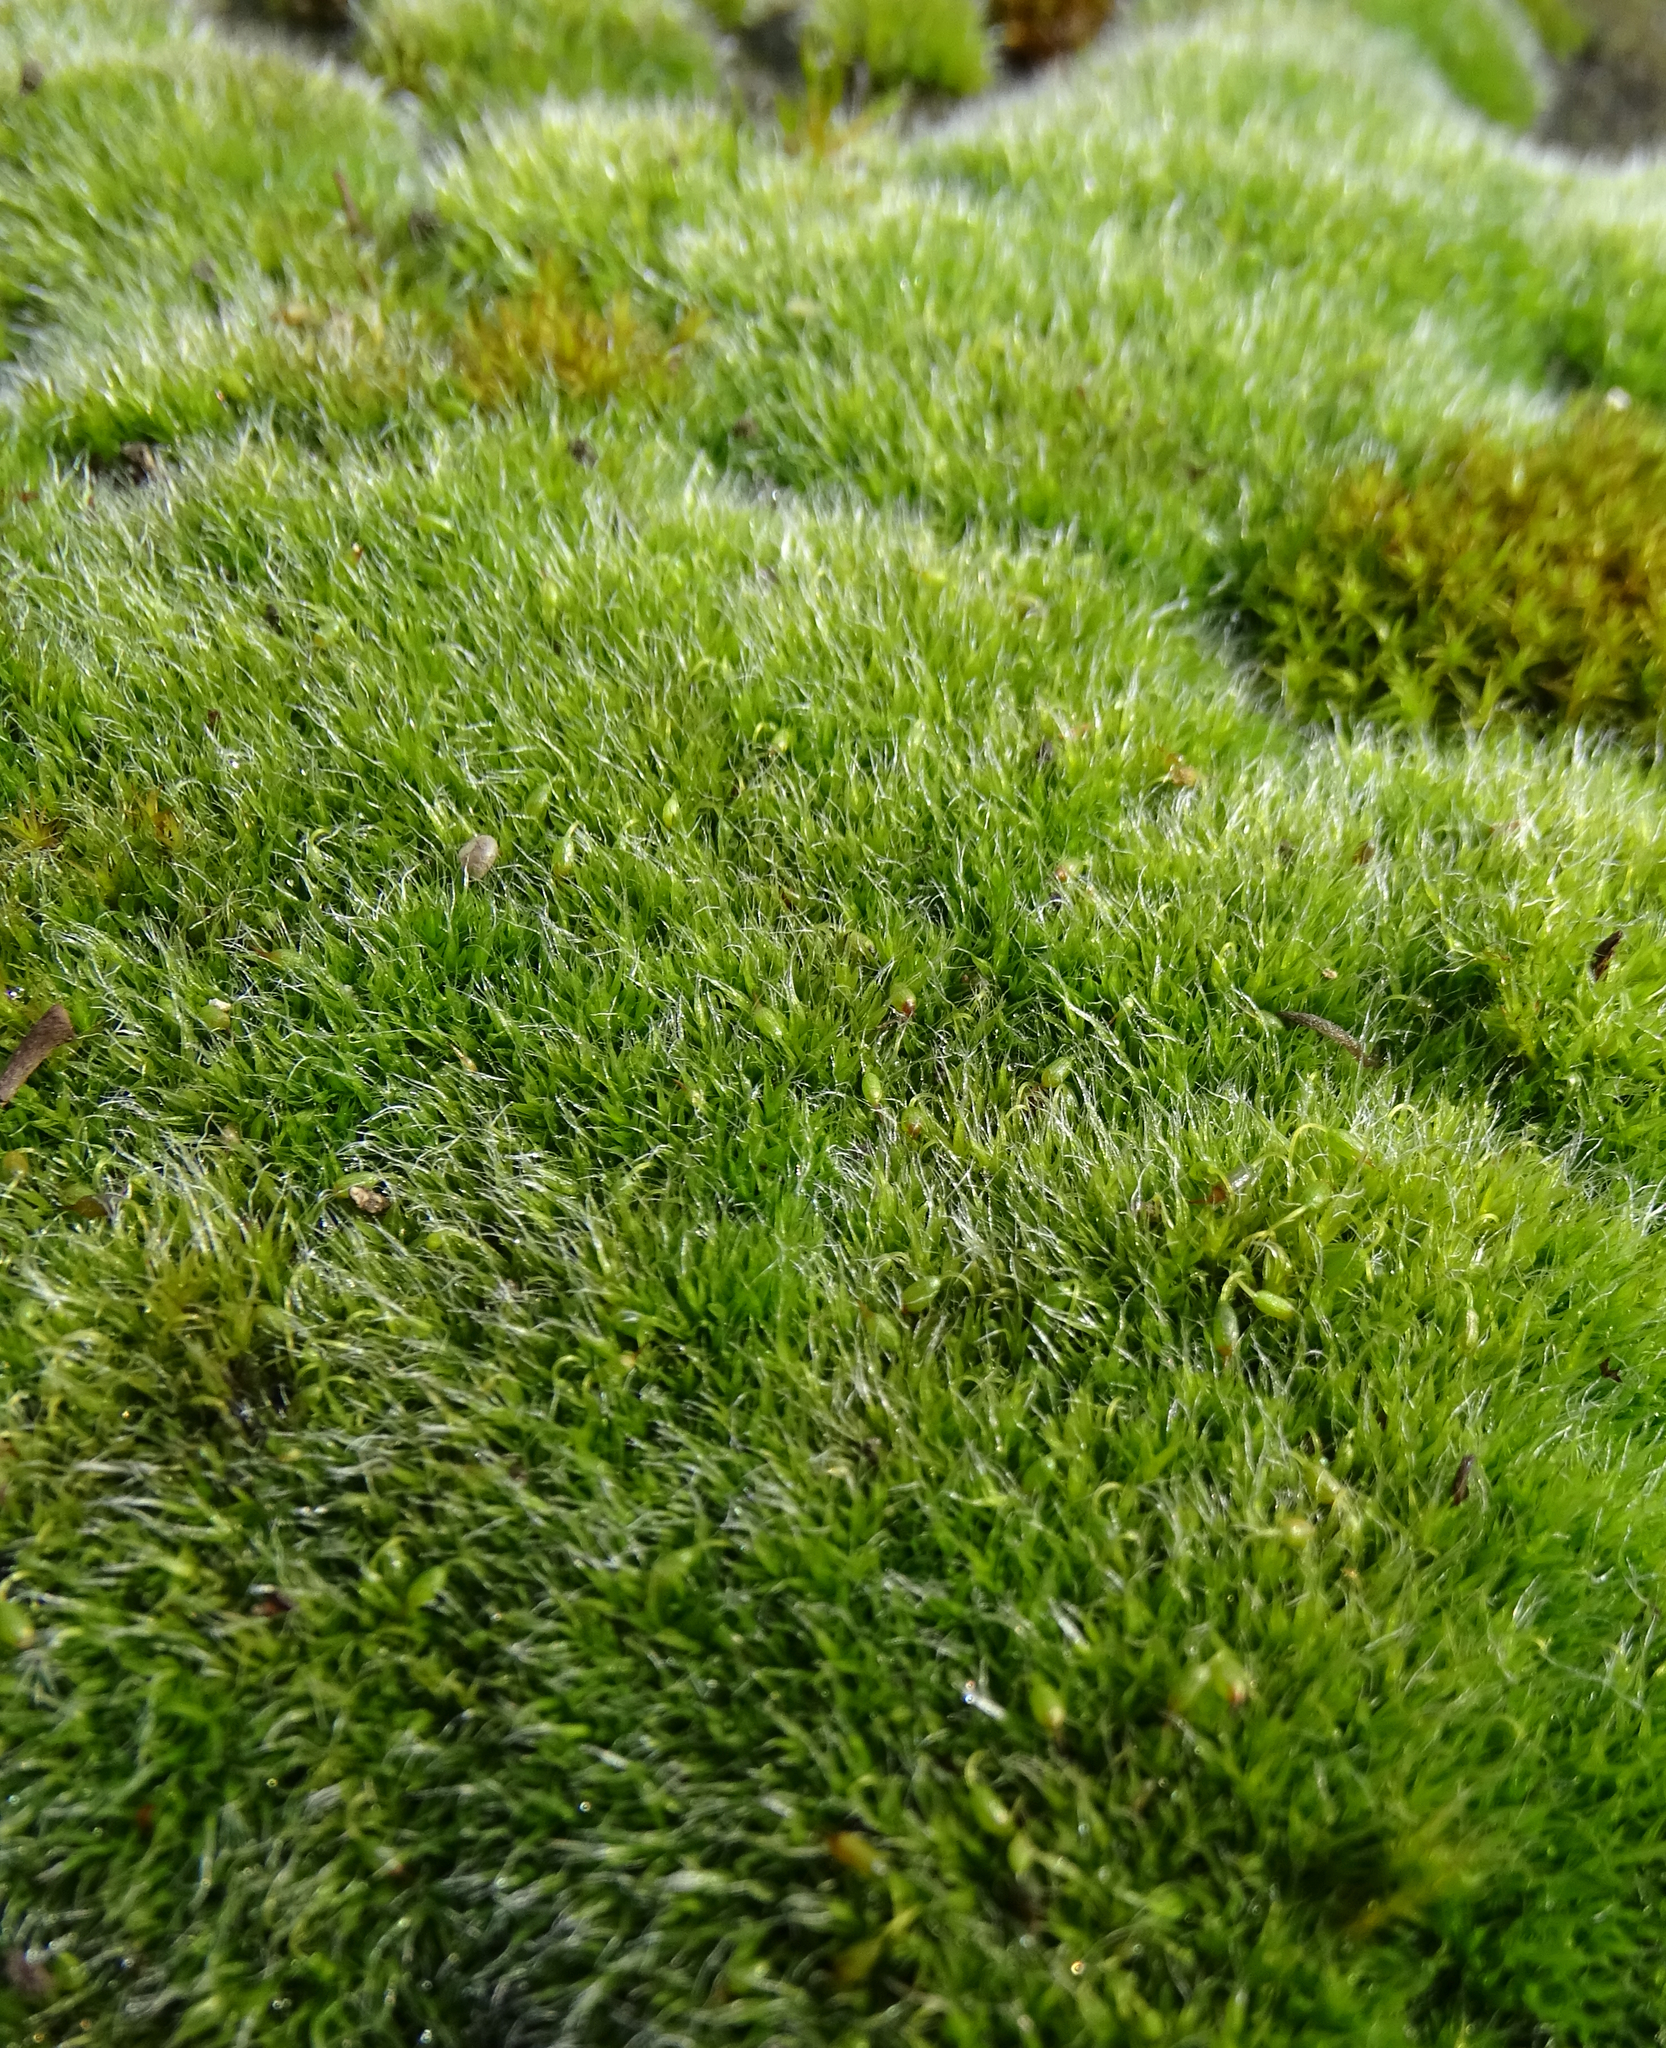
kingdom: Plantae
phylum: Bryophyta
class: Bryopsida
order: Grimmiales
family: Grimmiaceae
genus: Grimmia
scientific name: Grimmia pulvinata
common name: Grey-cushioned grimmia
